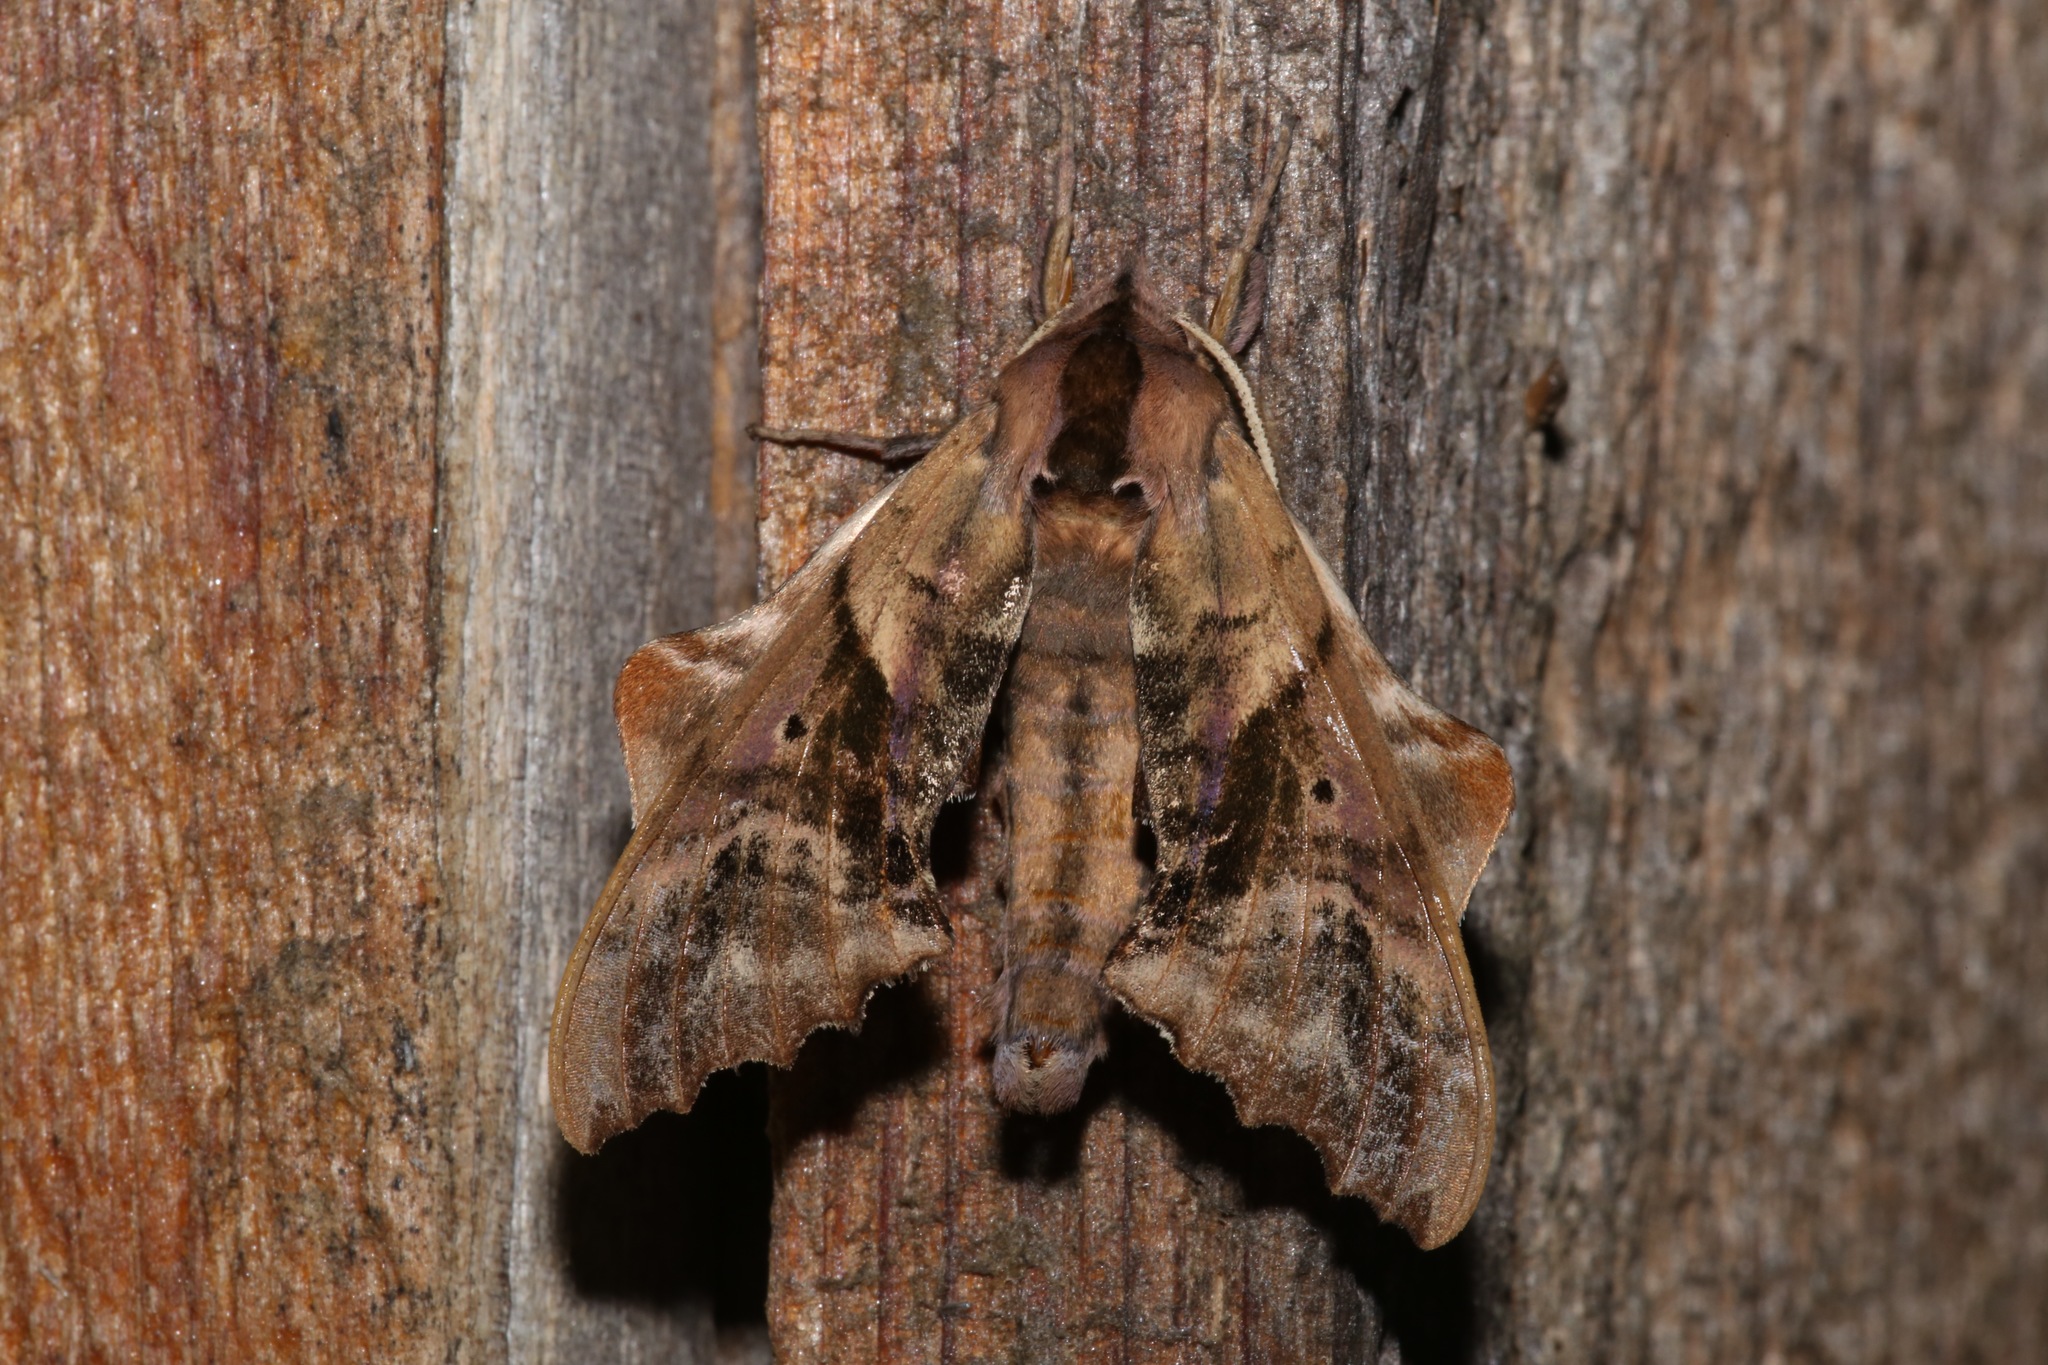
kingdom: Animalia
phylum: Arthropoda
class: Insecta
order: Lepidoptera
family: Sphingidae
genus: Paonias
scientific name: Paonias excaecata
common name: Blind-eyed sphinx
